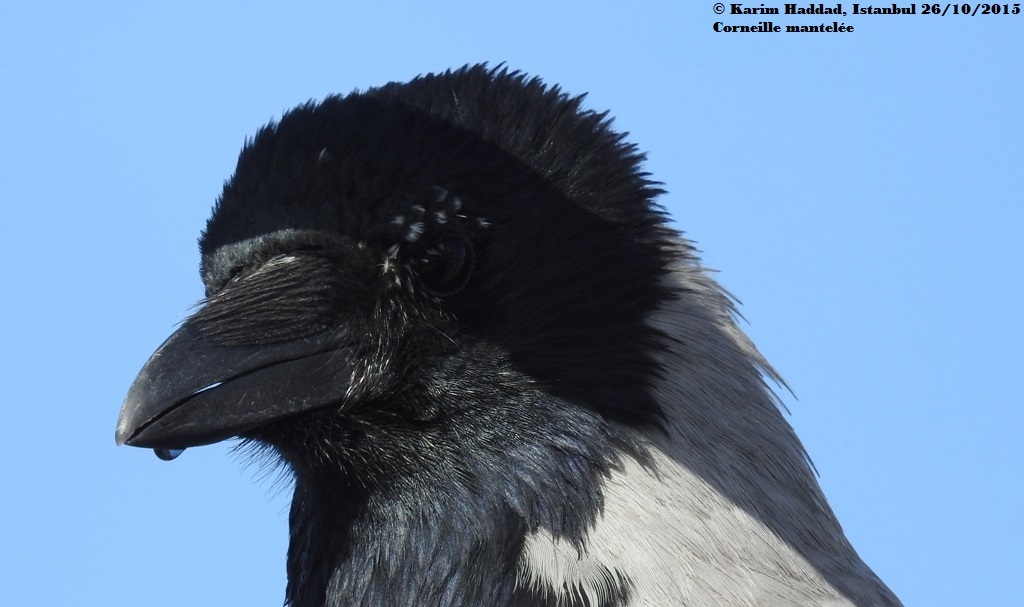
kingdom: Animalia
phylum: Chordata
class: Aves
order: Passeriformes
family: Corvidae
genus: Corvus
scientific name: Corvus cornix
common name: Hooded crow
